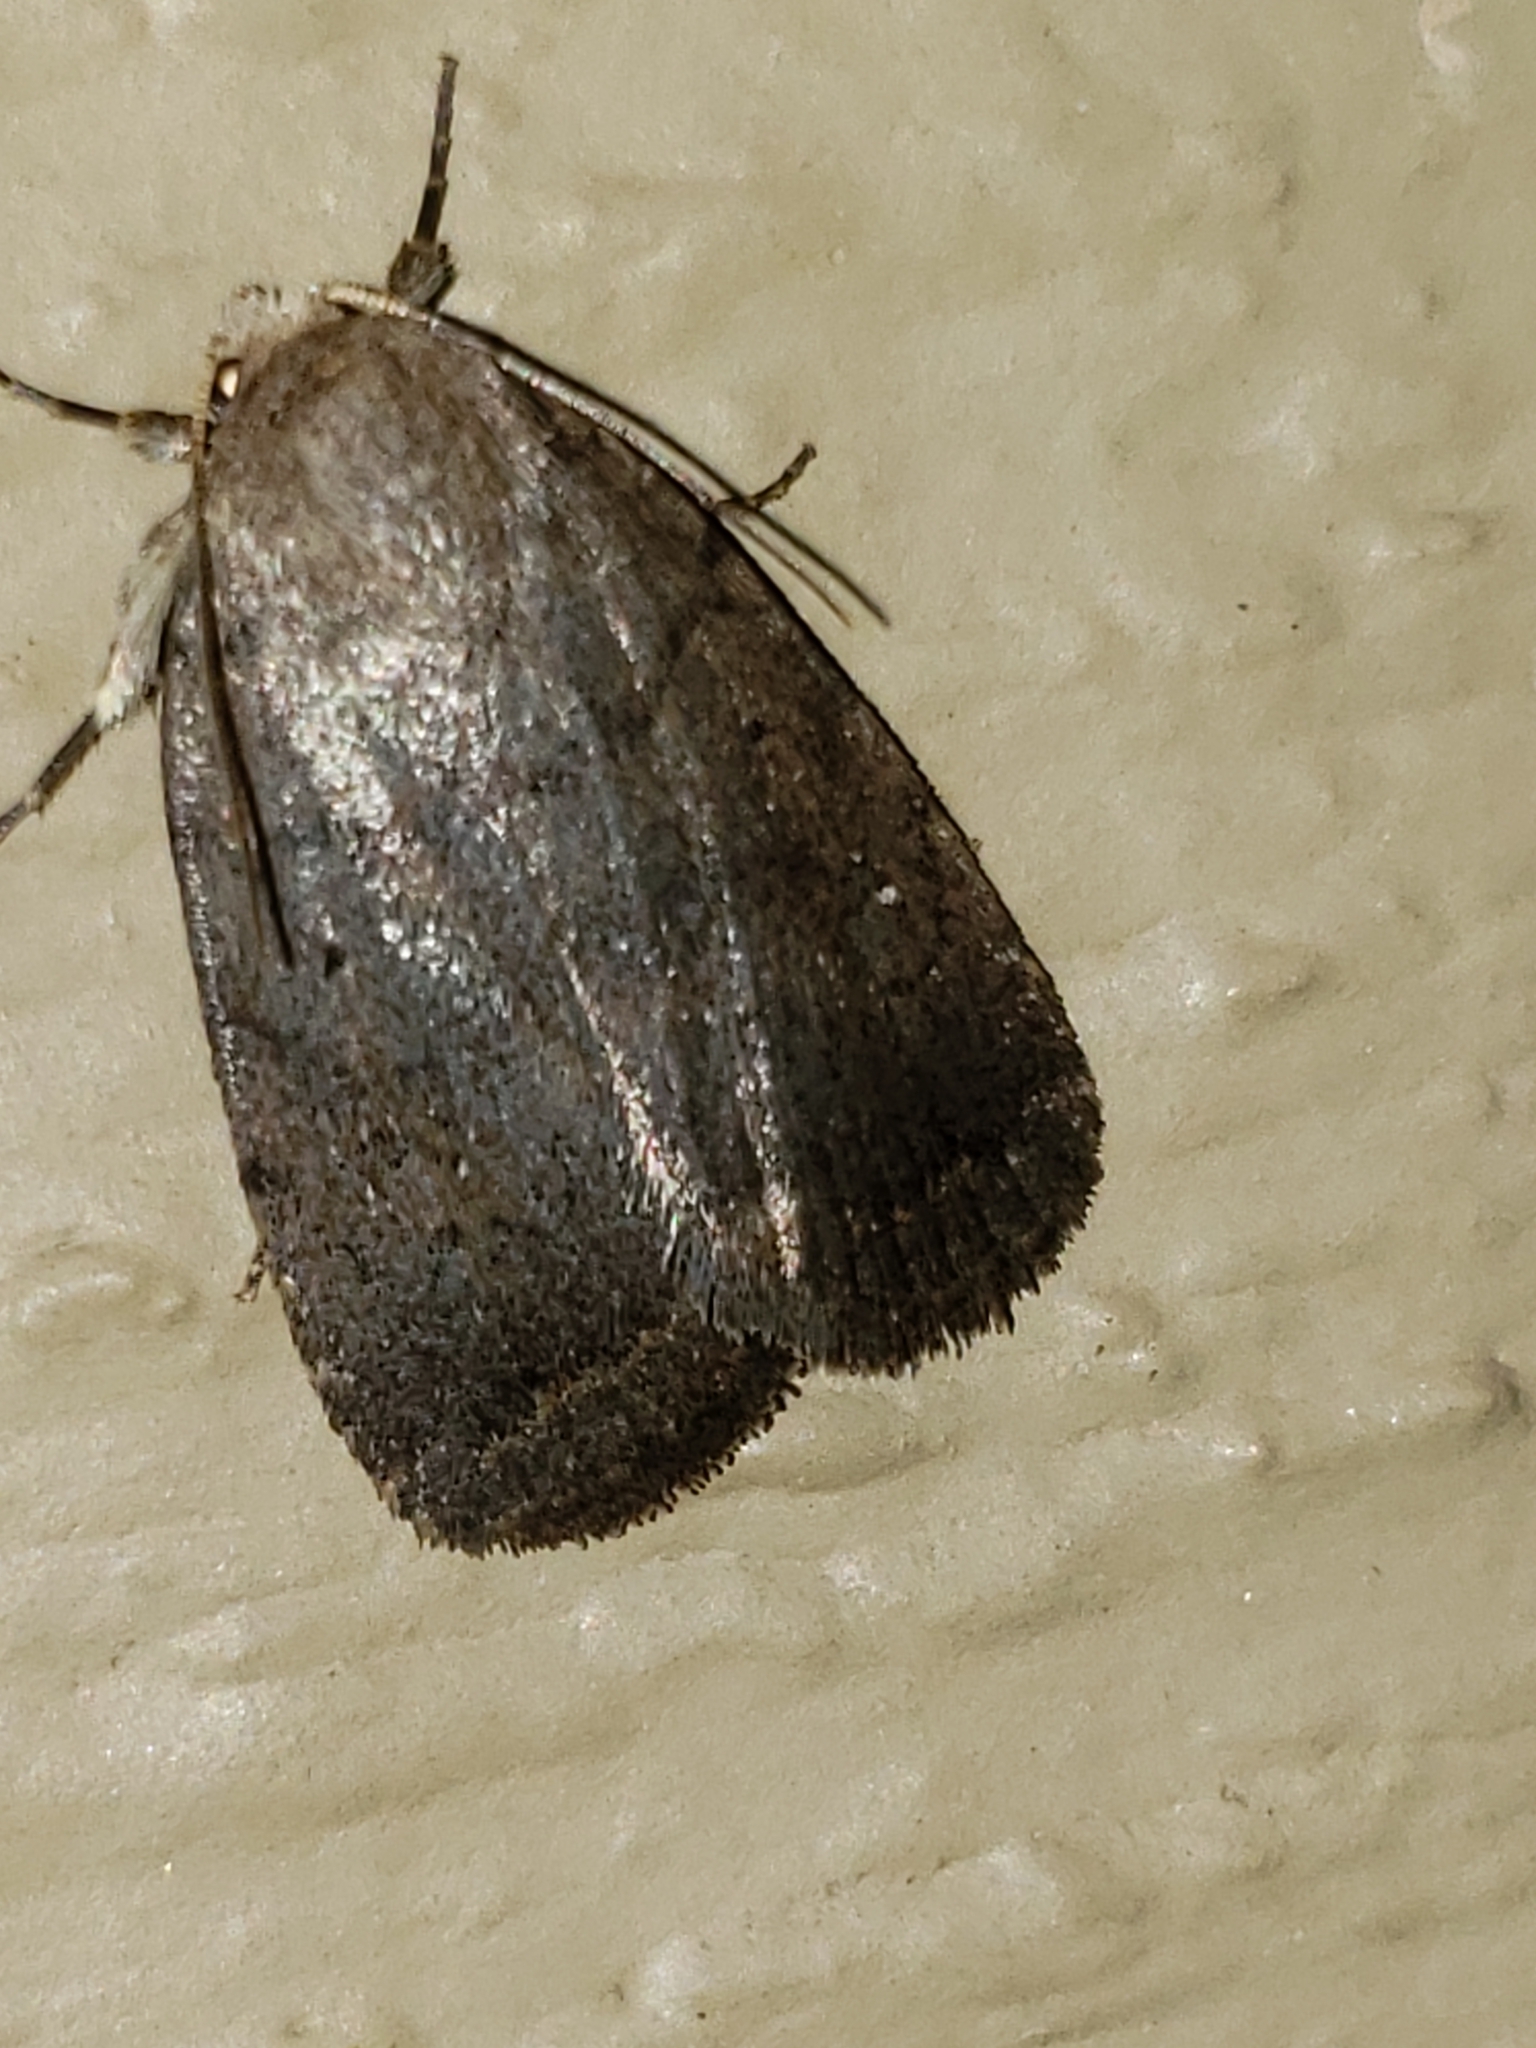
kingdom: Animalia
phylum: Arthropoda
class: Insecta
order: Lepidoptera
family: Noctuidae
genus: Athetis
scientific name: Athetis tarda
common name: Slowpoke moth
